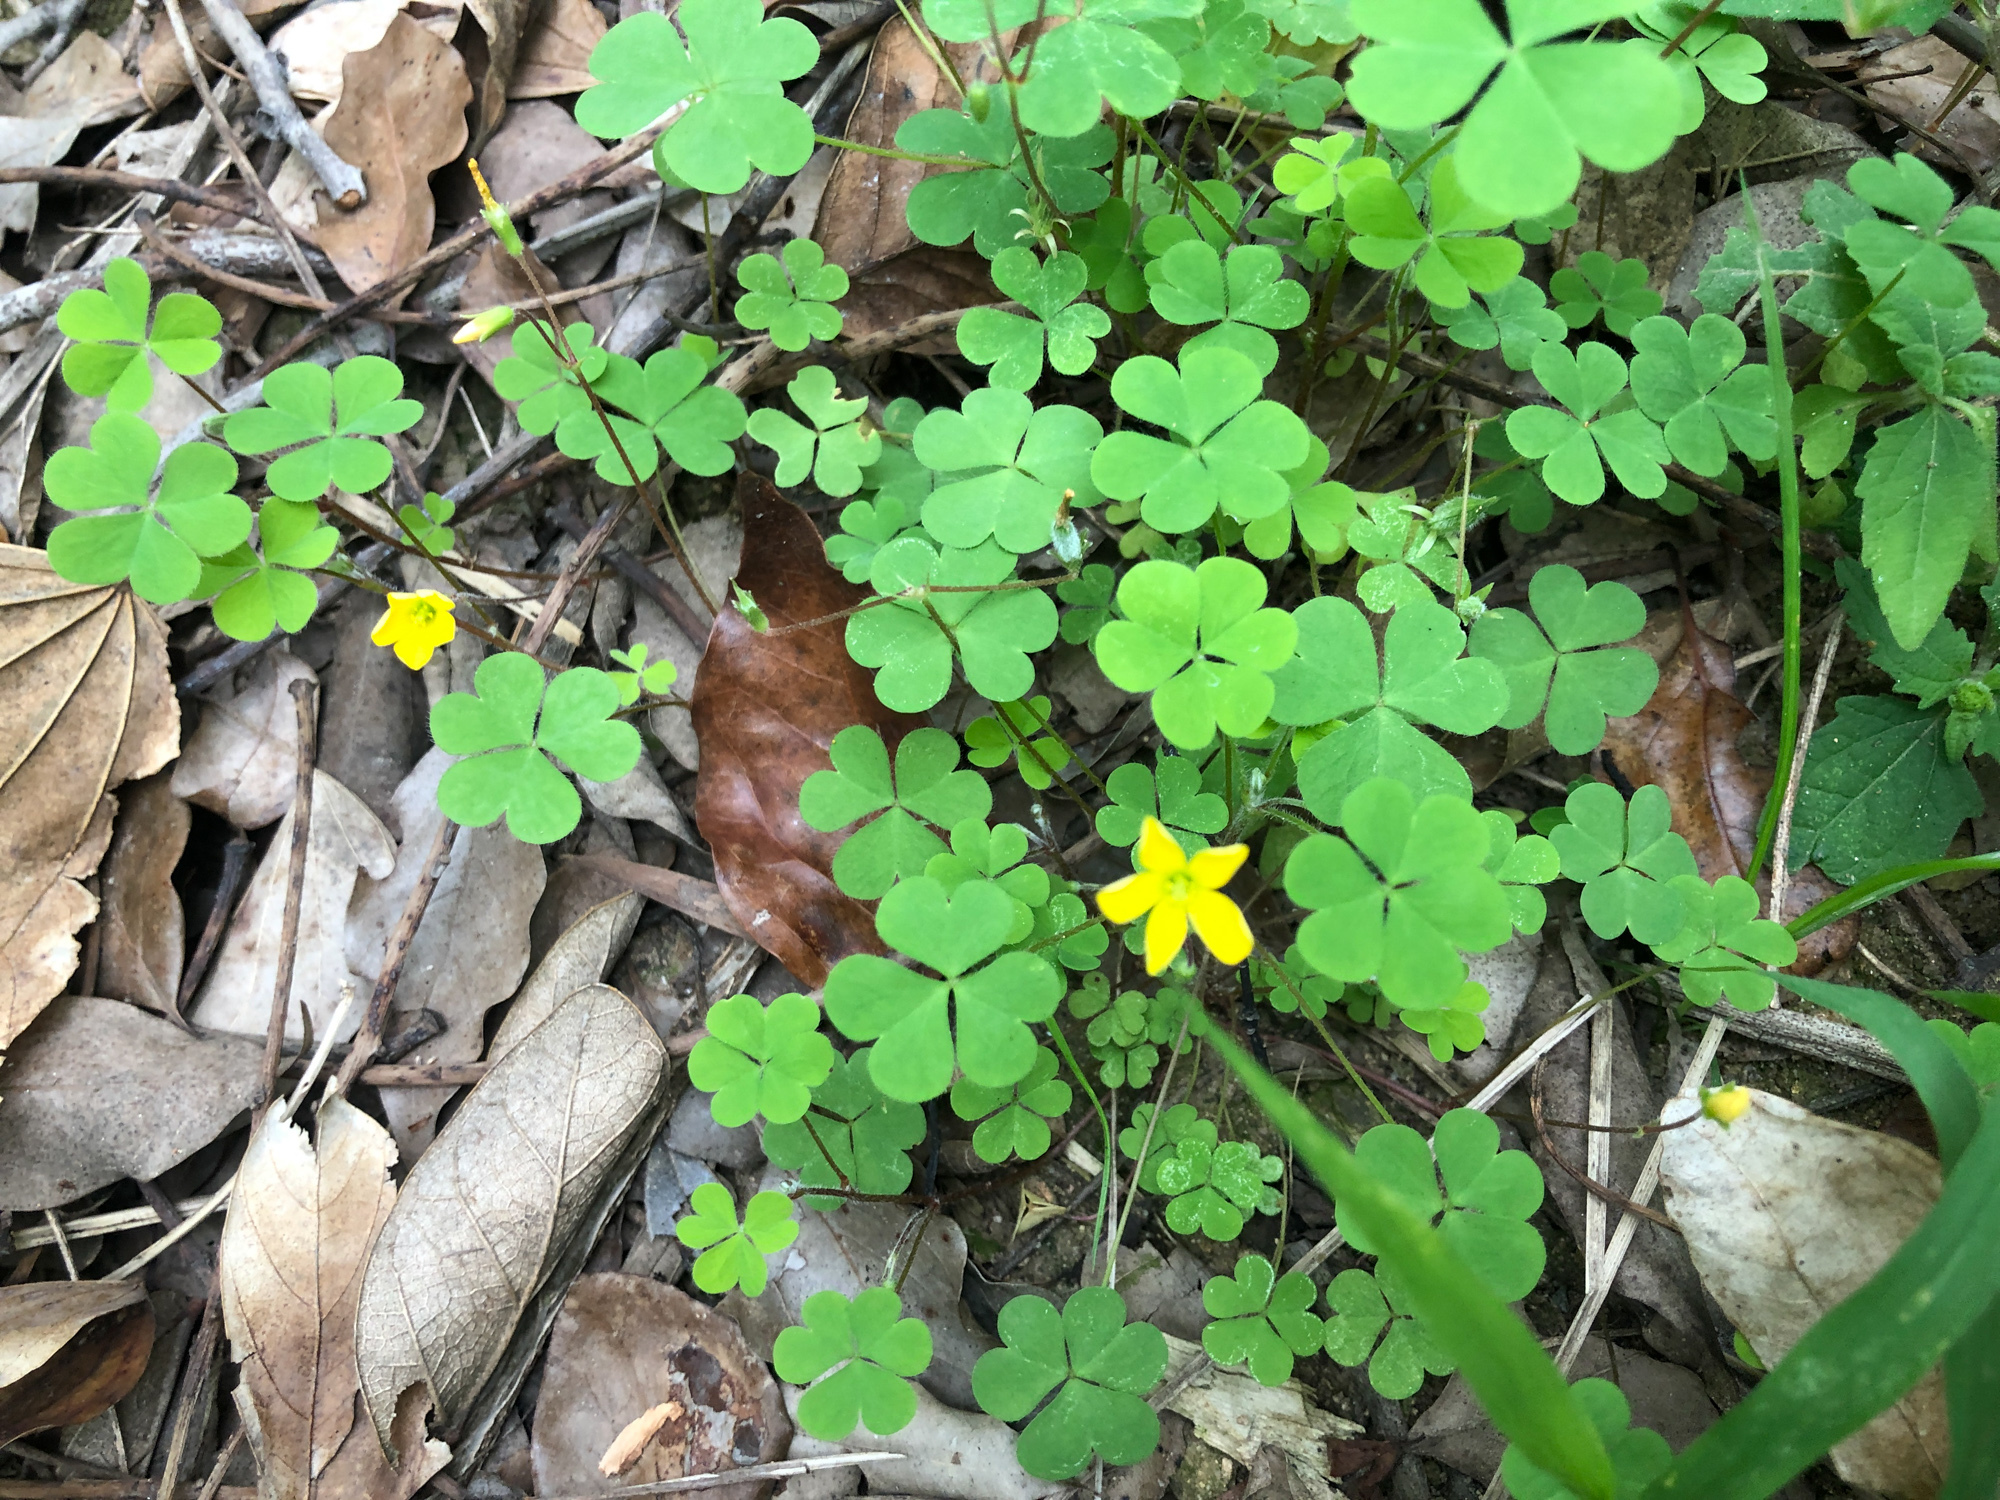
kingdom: Plantae
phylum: Tracheophyta
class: Magnoliopsida
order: Oxalidales
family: Oxalidaceae
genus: Oxalis
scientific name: Oxalis corniculata
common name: Procumbent yellow-sorrel
